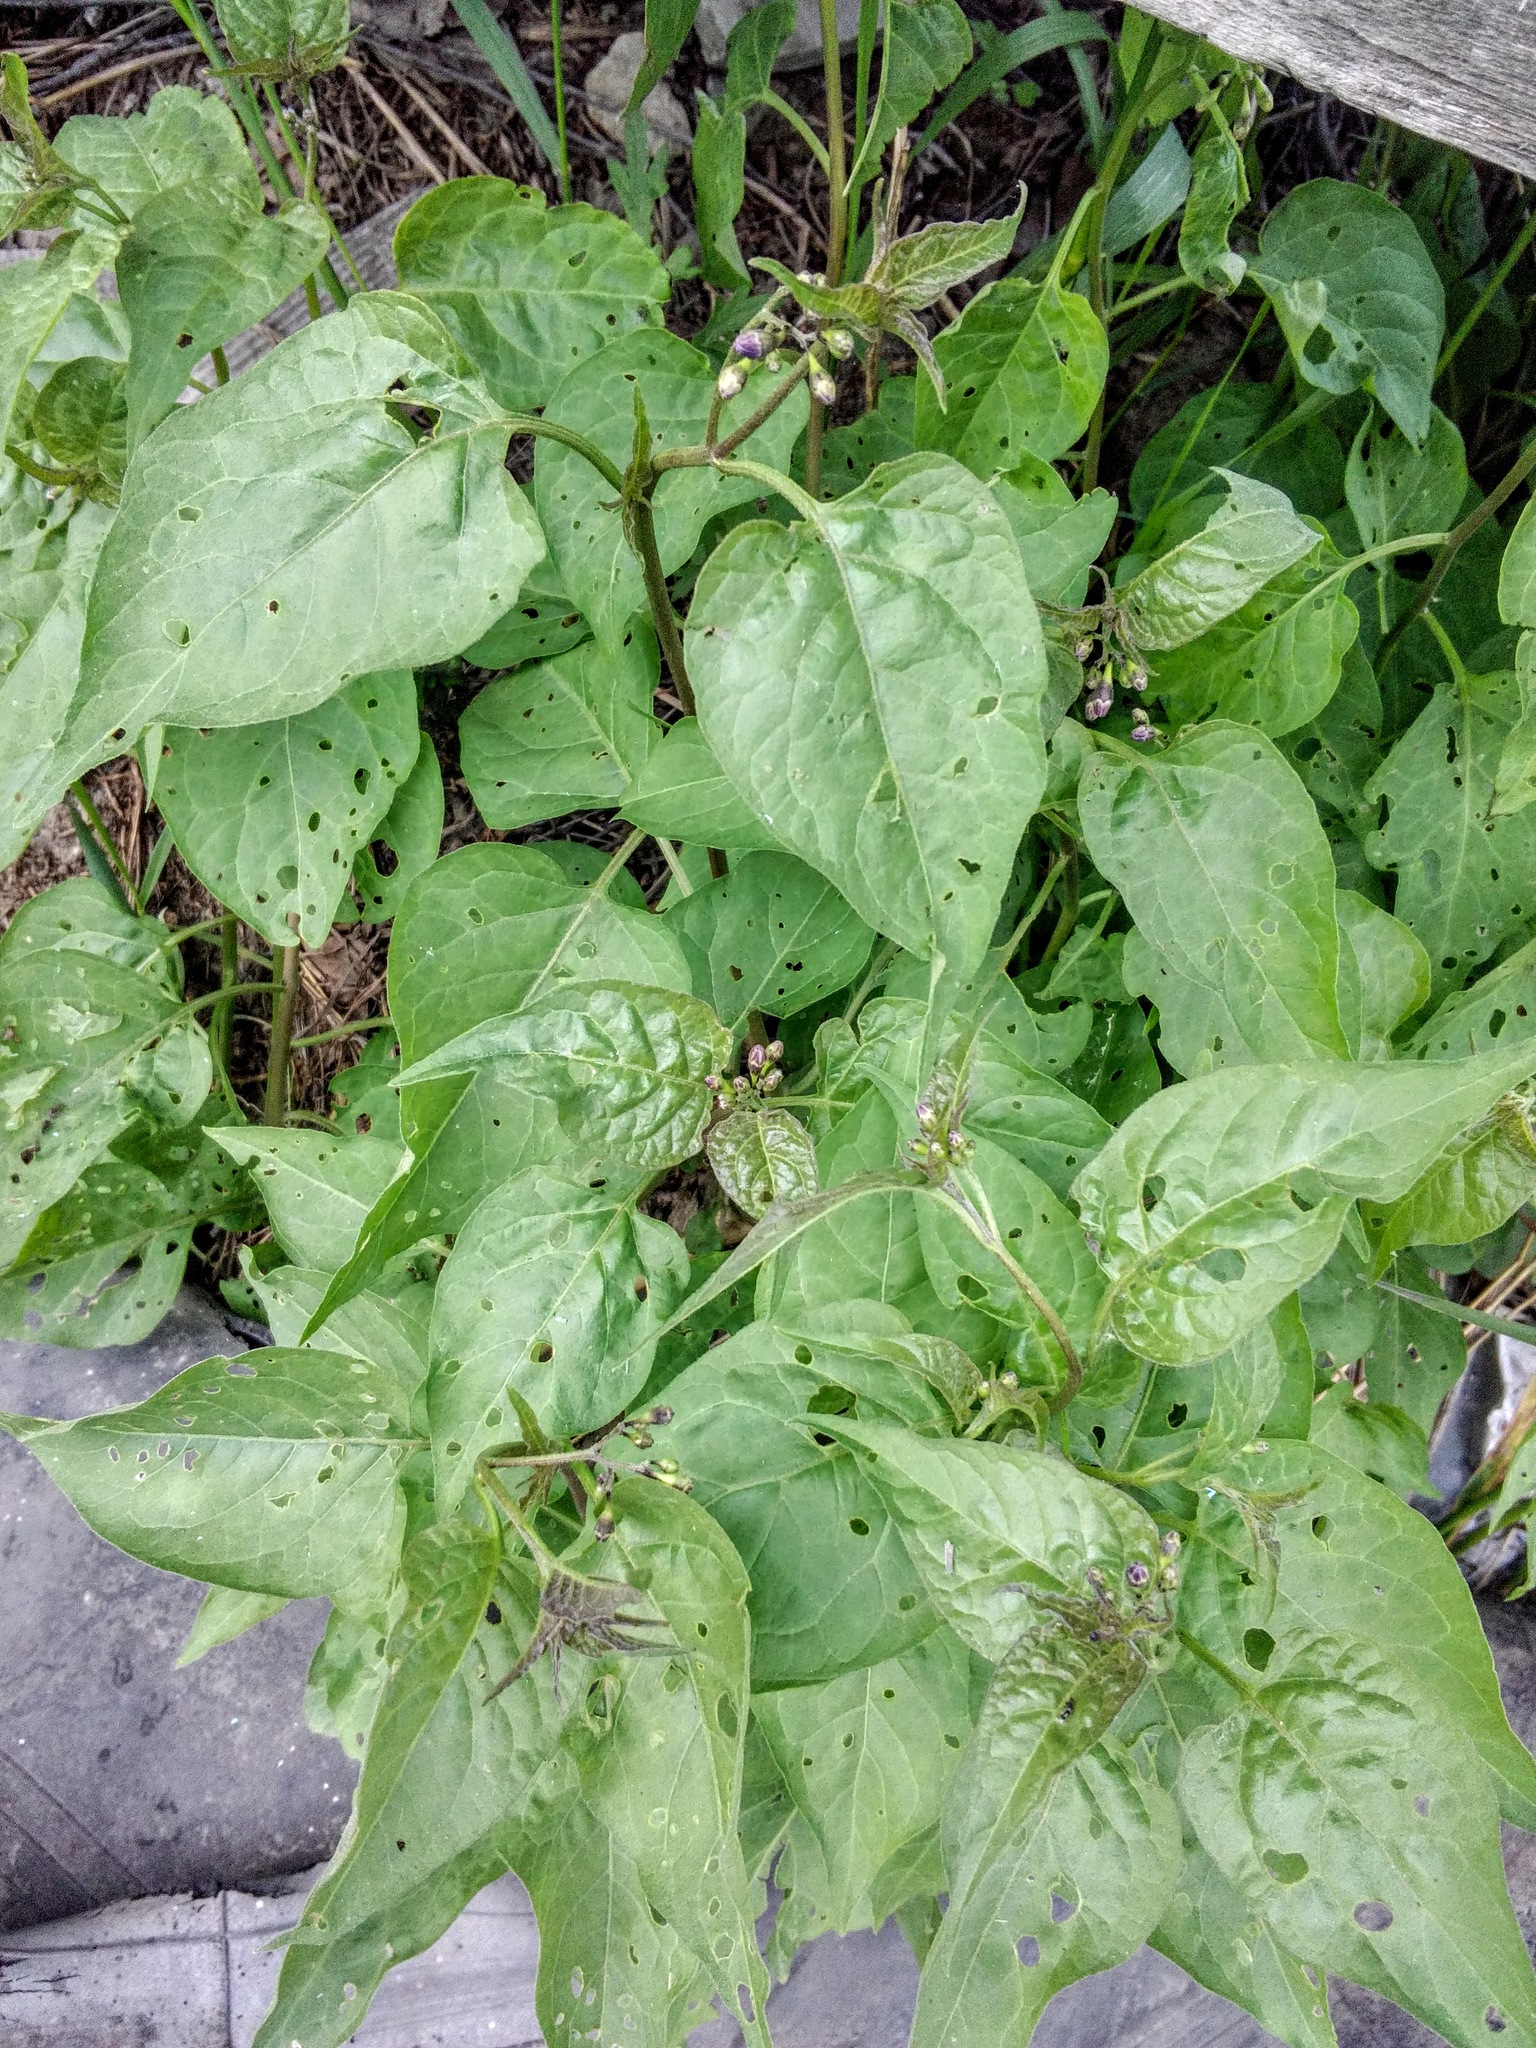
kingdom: Plantae
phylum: Tracheophyta
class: Magnoliopsida
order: Solanales
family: Solanaceae
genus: Solanum
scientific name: Solanum dulcamara
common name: Climbing nightshade
